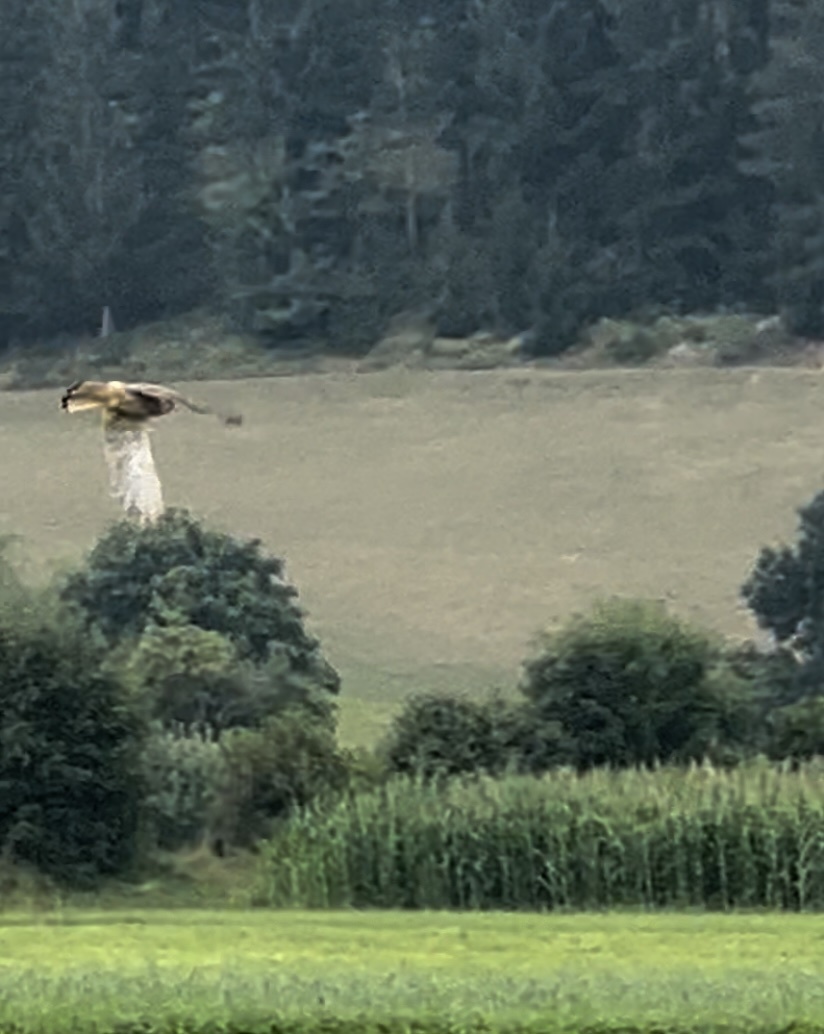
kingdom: Animalia
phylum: Chordata
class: Aves
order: Falconiformes
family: Falconidae
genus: Falco
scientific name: Falco tinnunculus
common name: Common kestrel
